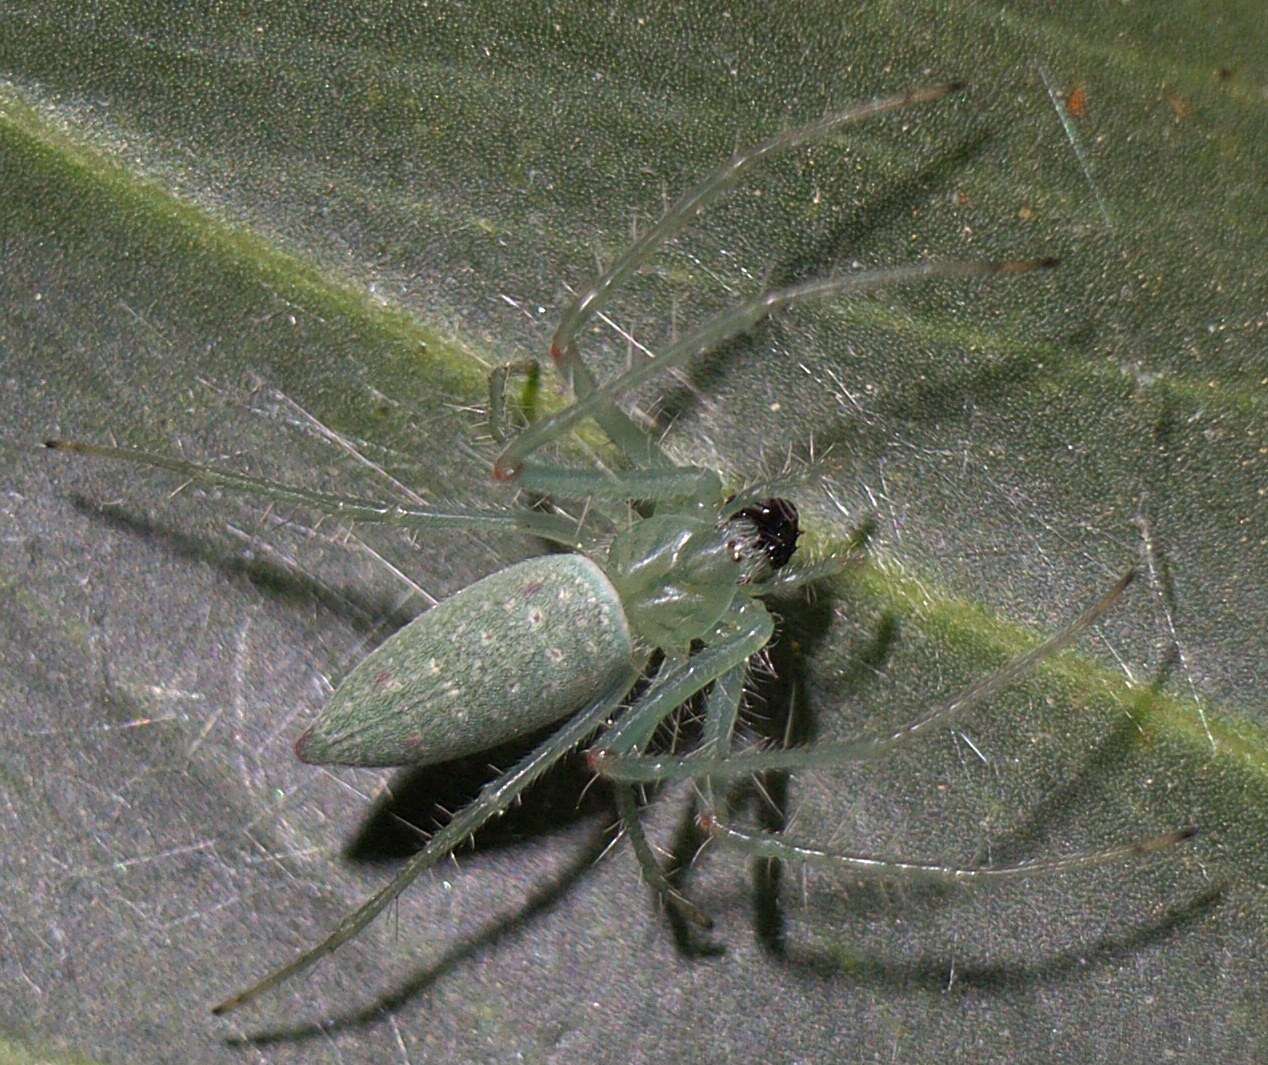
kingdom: Animalia
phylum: Arthropoda
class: Arachnida
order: Araneae
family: Araneidae
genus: Araneus
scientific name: Araneus talipedatus
